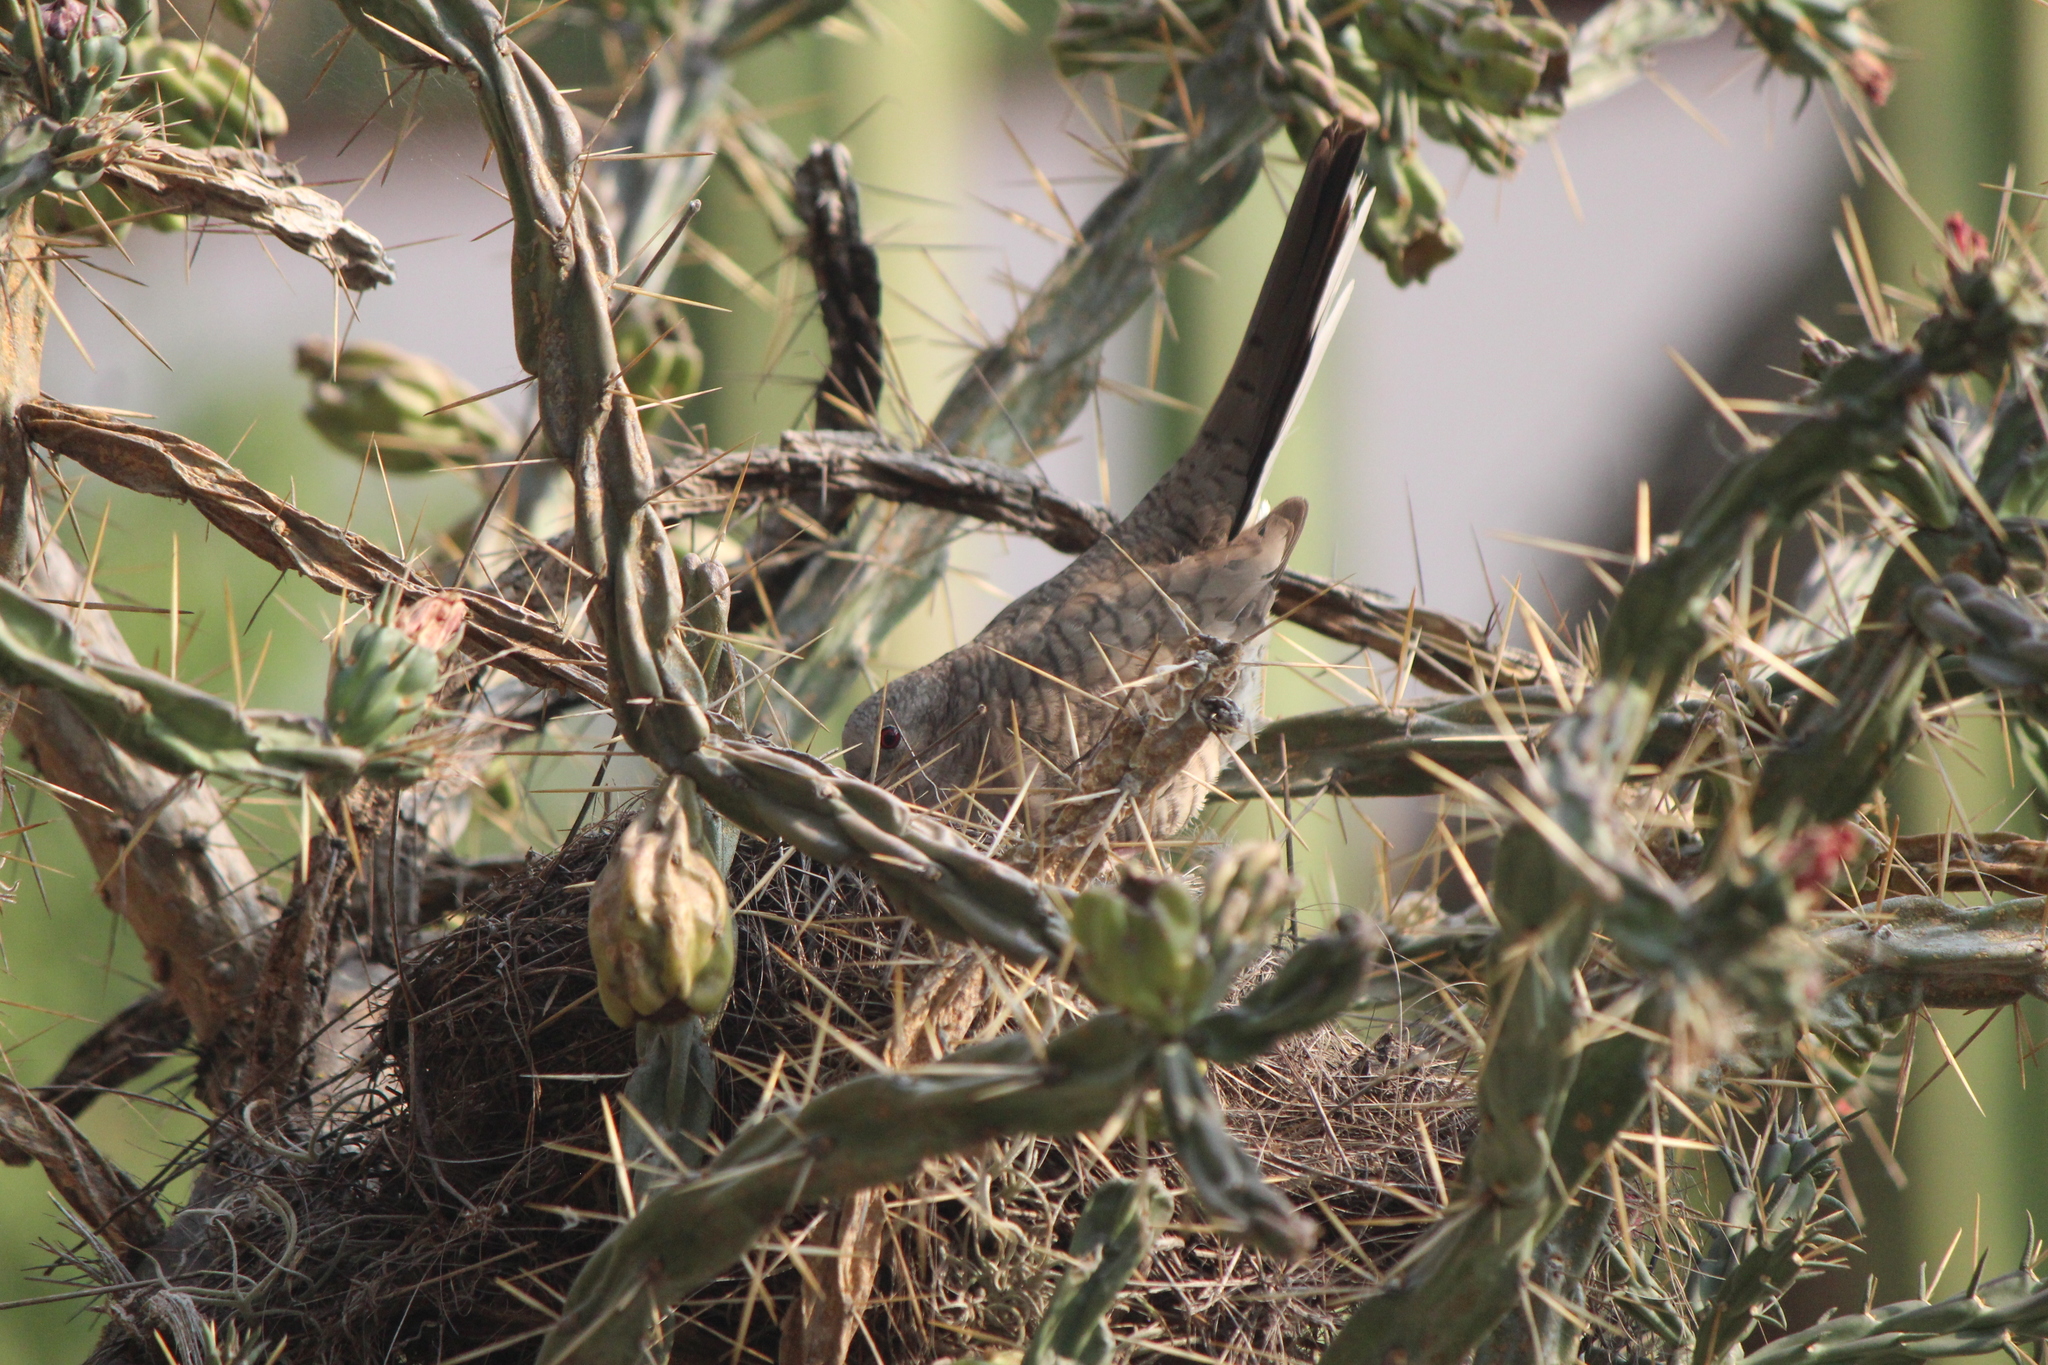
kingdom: Animalia
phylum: Chordata
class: Aves
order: Columbiformes
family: Columbidae
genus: Columbina
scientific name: Columbina inca
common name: Inca dove
